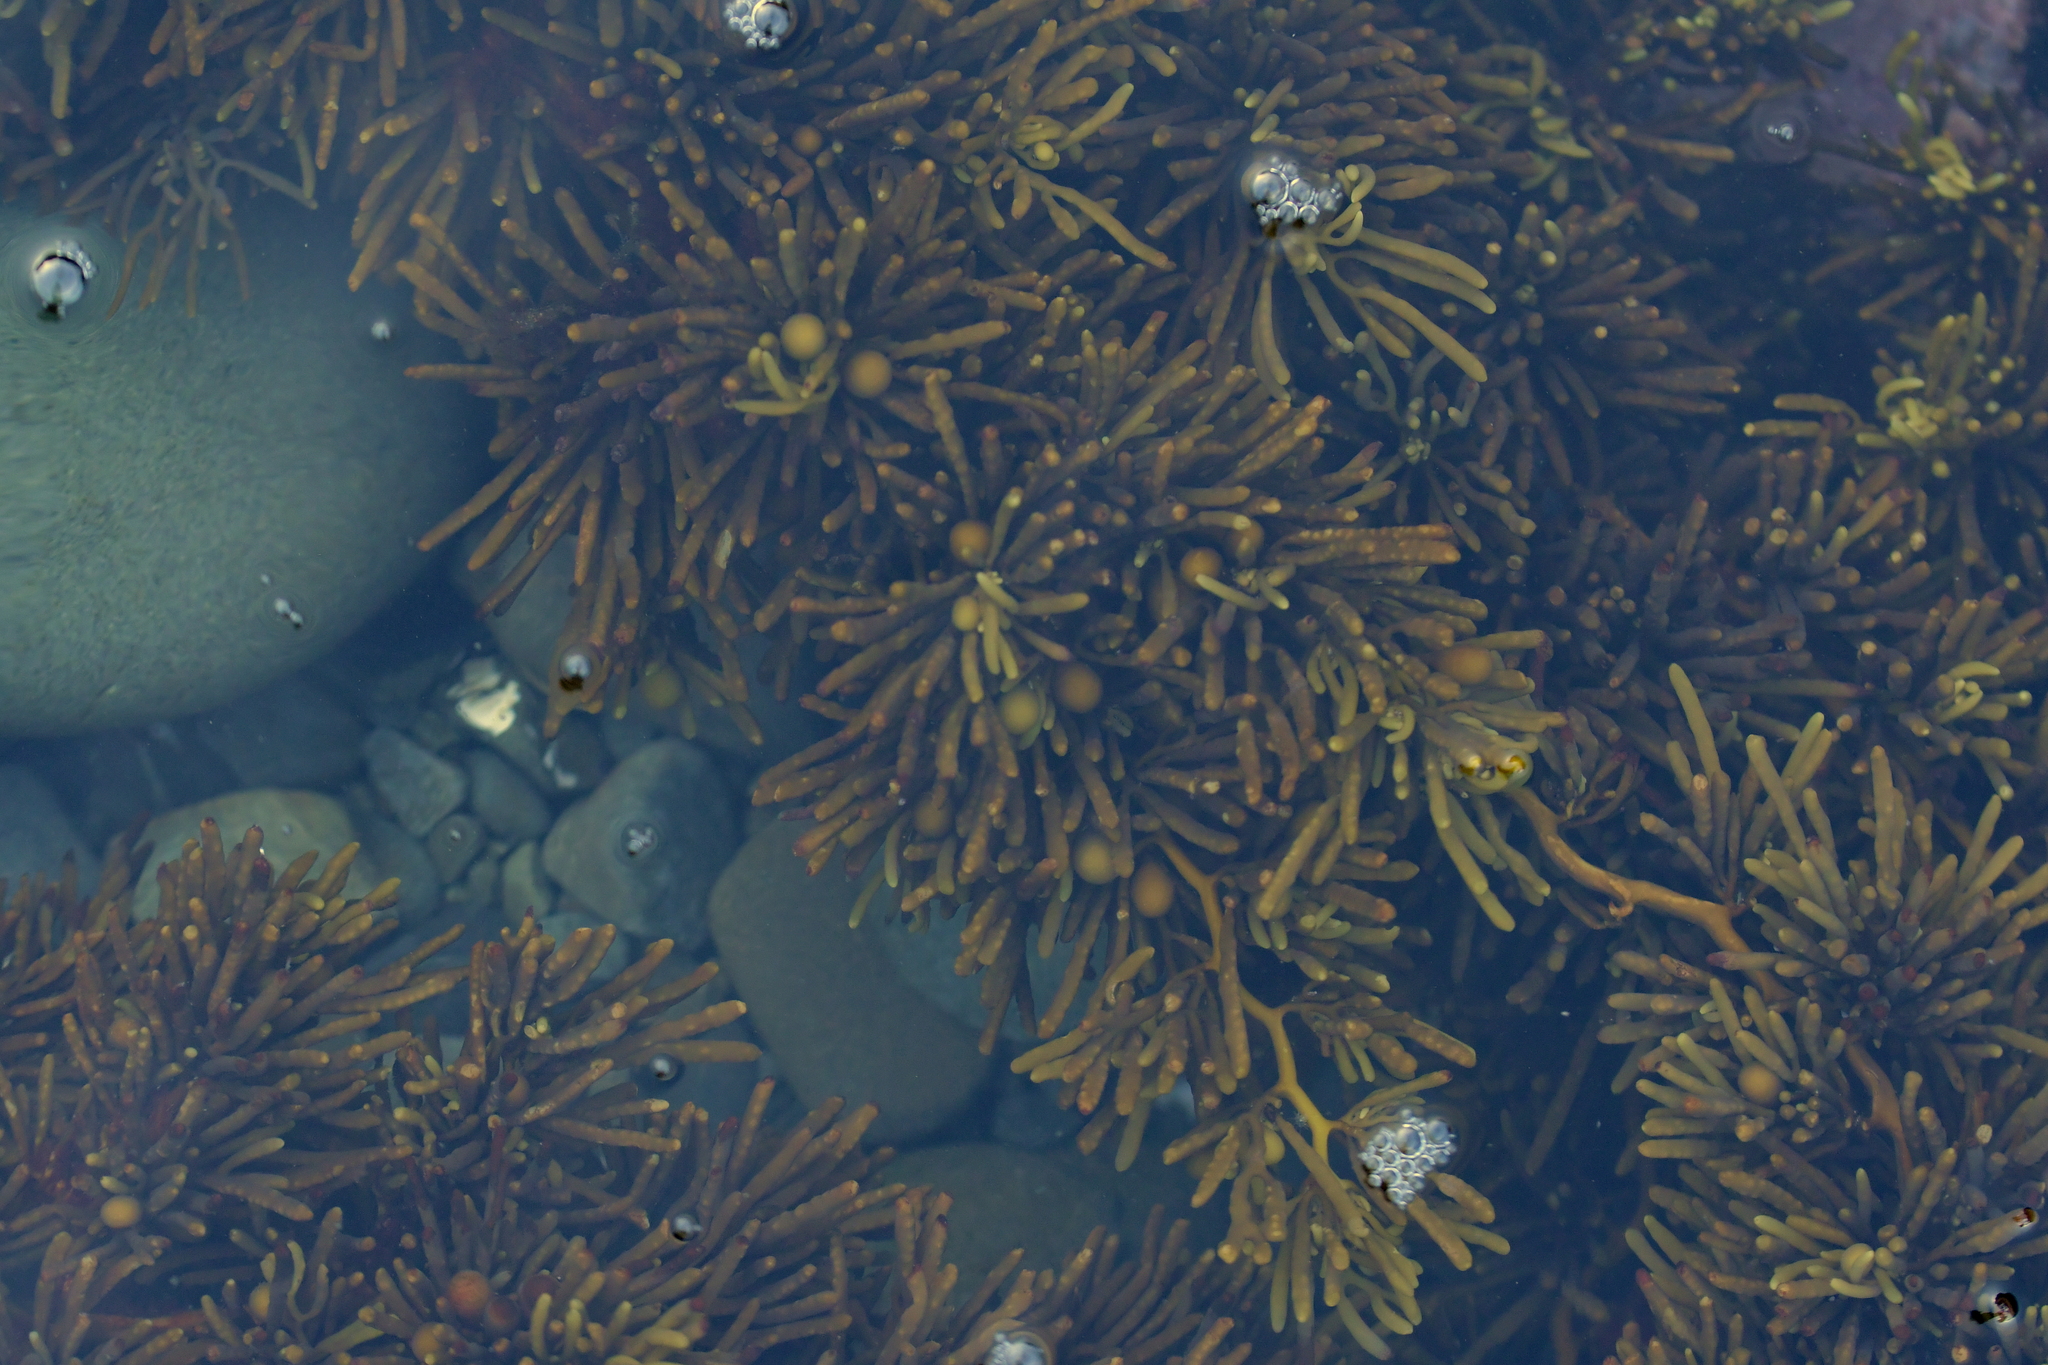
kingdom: Chromista
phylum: Ochrophyta
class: Phaeophyceae
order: Fucales
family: Sargassaceae
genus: Cystophora
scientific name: Cystophora torulosa
